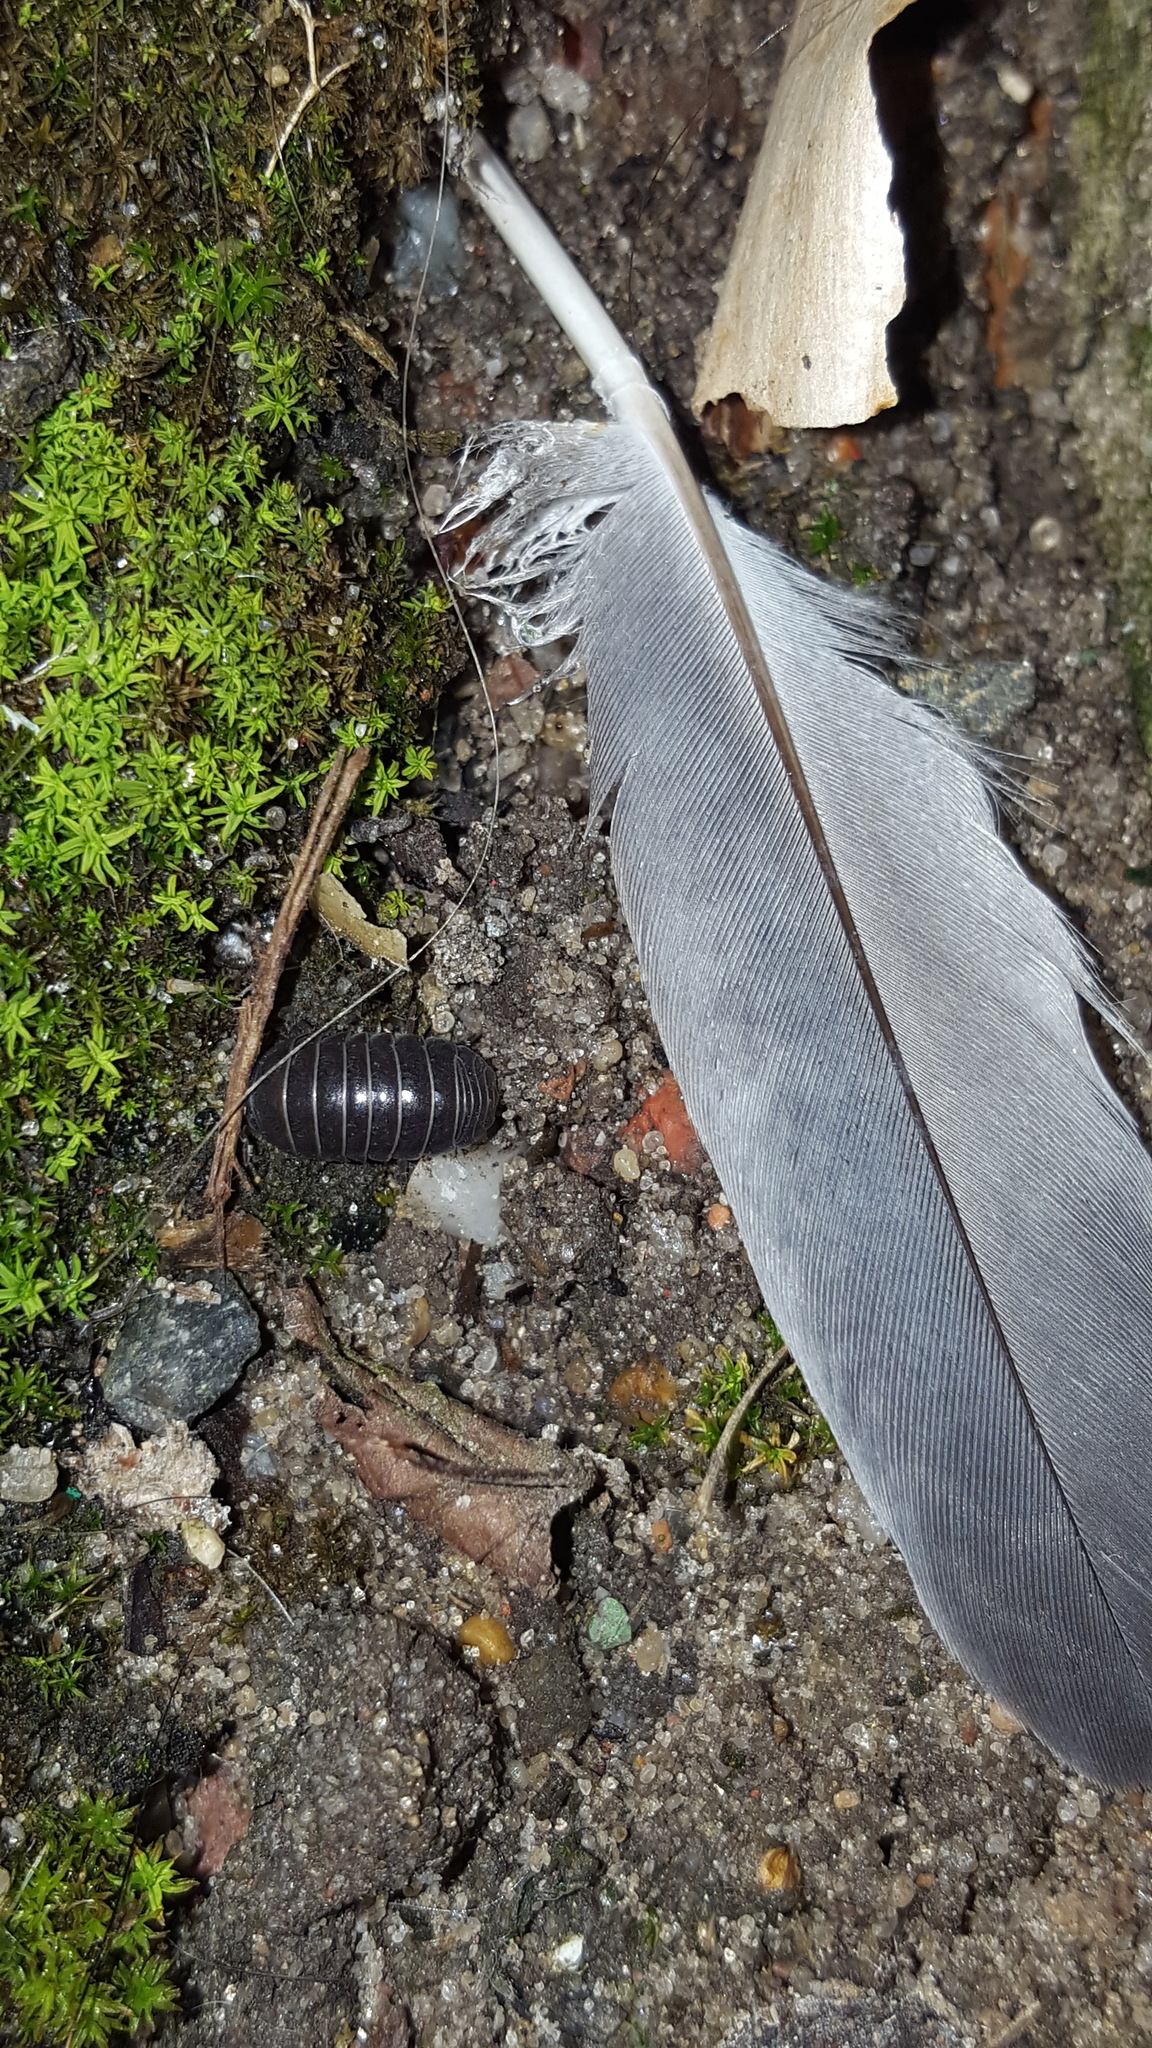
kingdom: Plantae
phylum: Bryophyta
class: Bryopsida
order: Pottiales
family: Pottiaceae
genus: Barbula
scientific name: Barbula unguiculata
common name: Prickly beard moss
